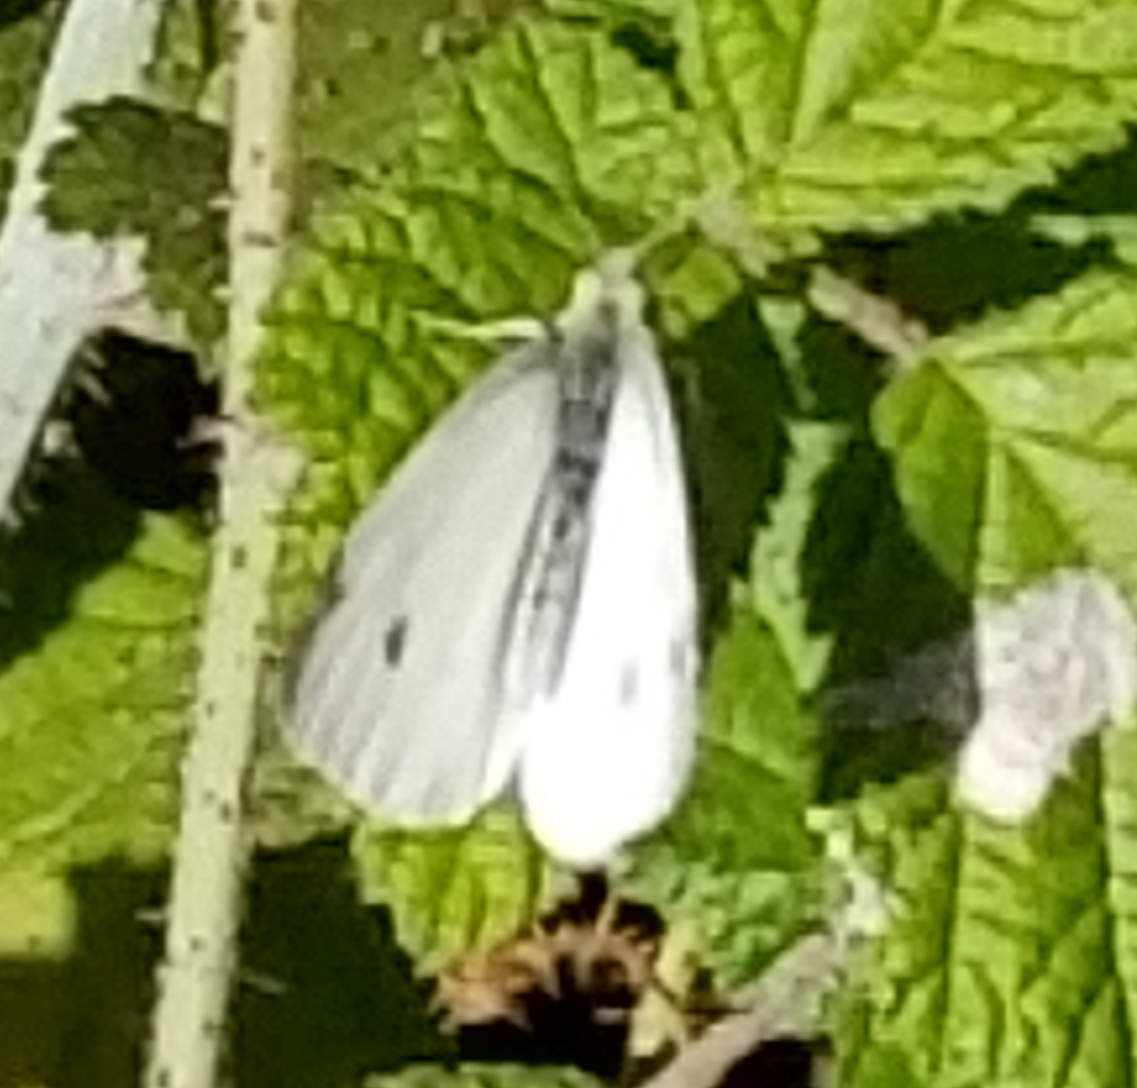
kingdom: Animalia
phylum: Arthropoda
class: Insecta
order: Lepidoptera
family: Pieridae
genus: Pieris
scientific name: Pieris rapae
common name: Small white
